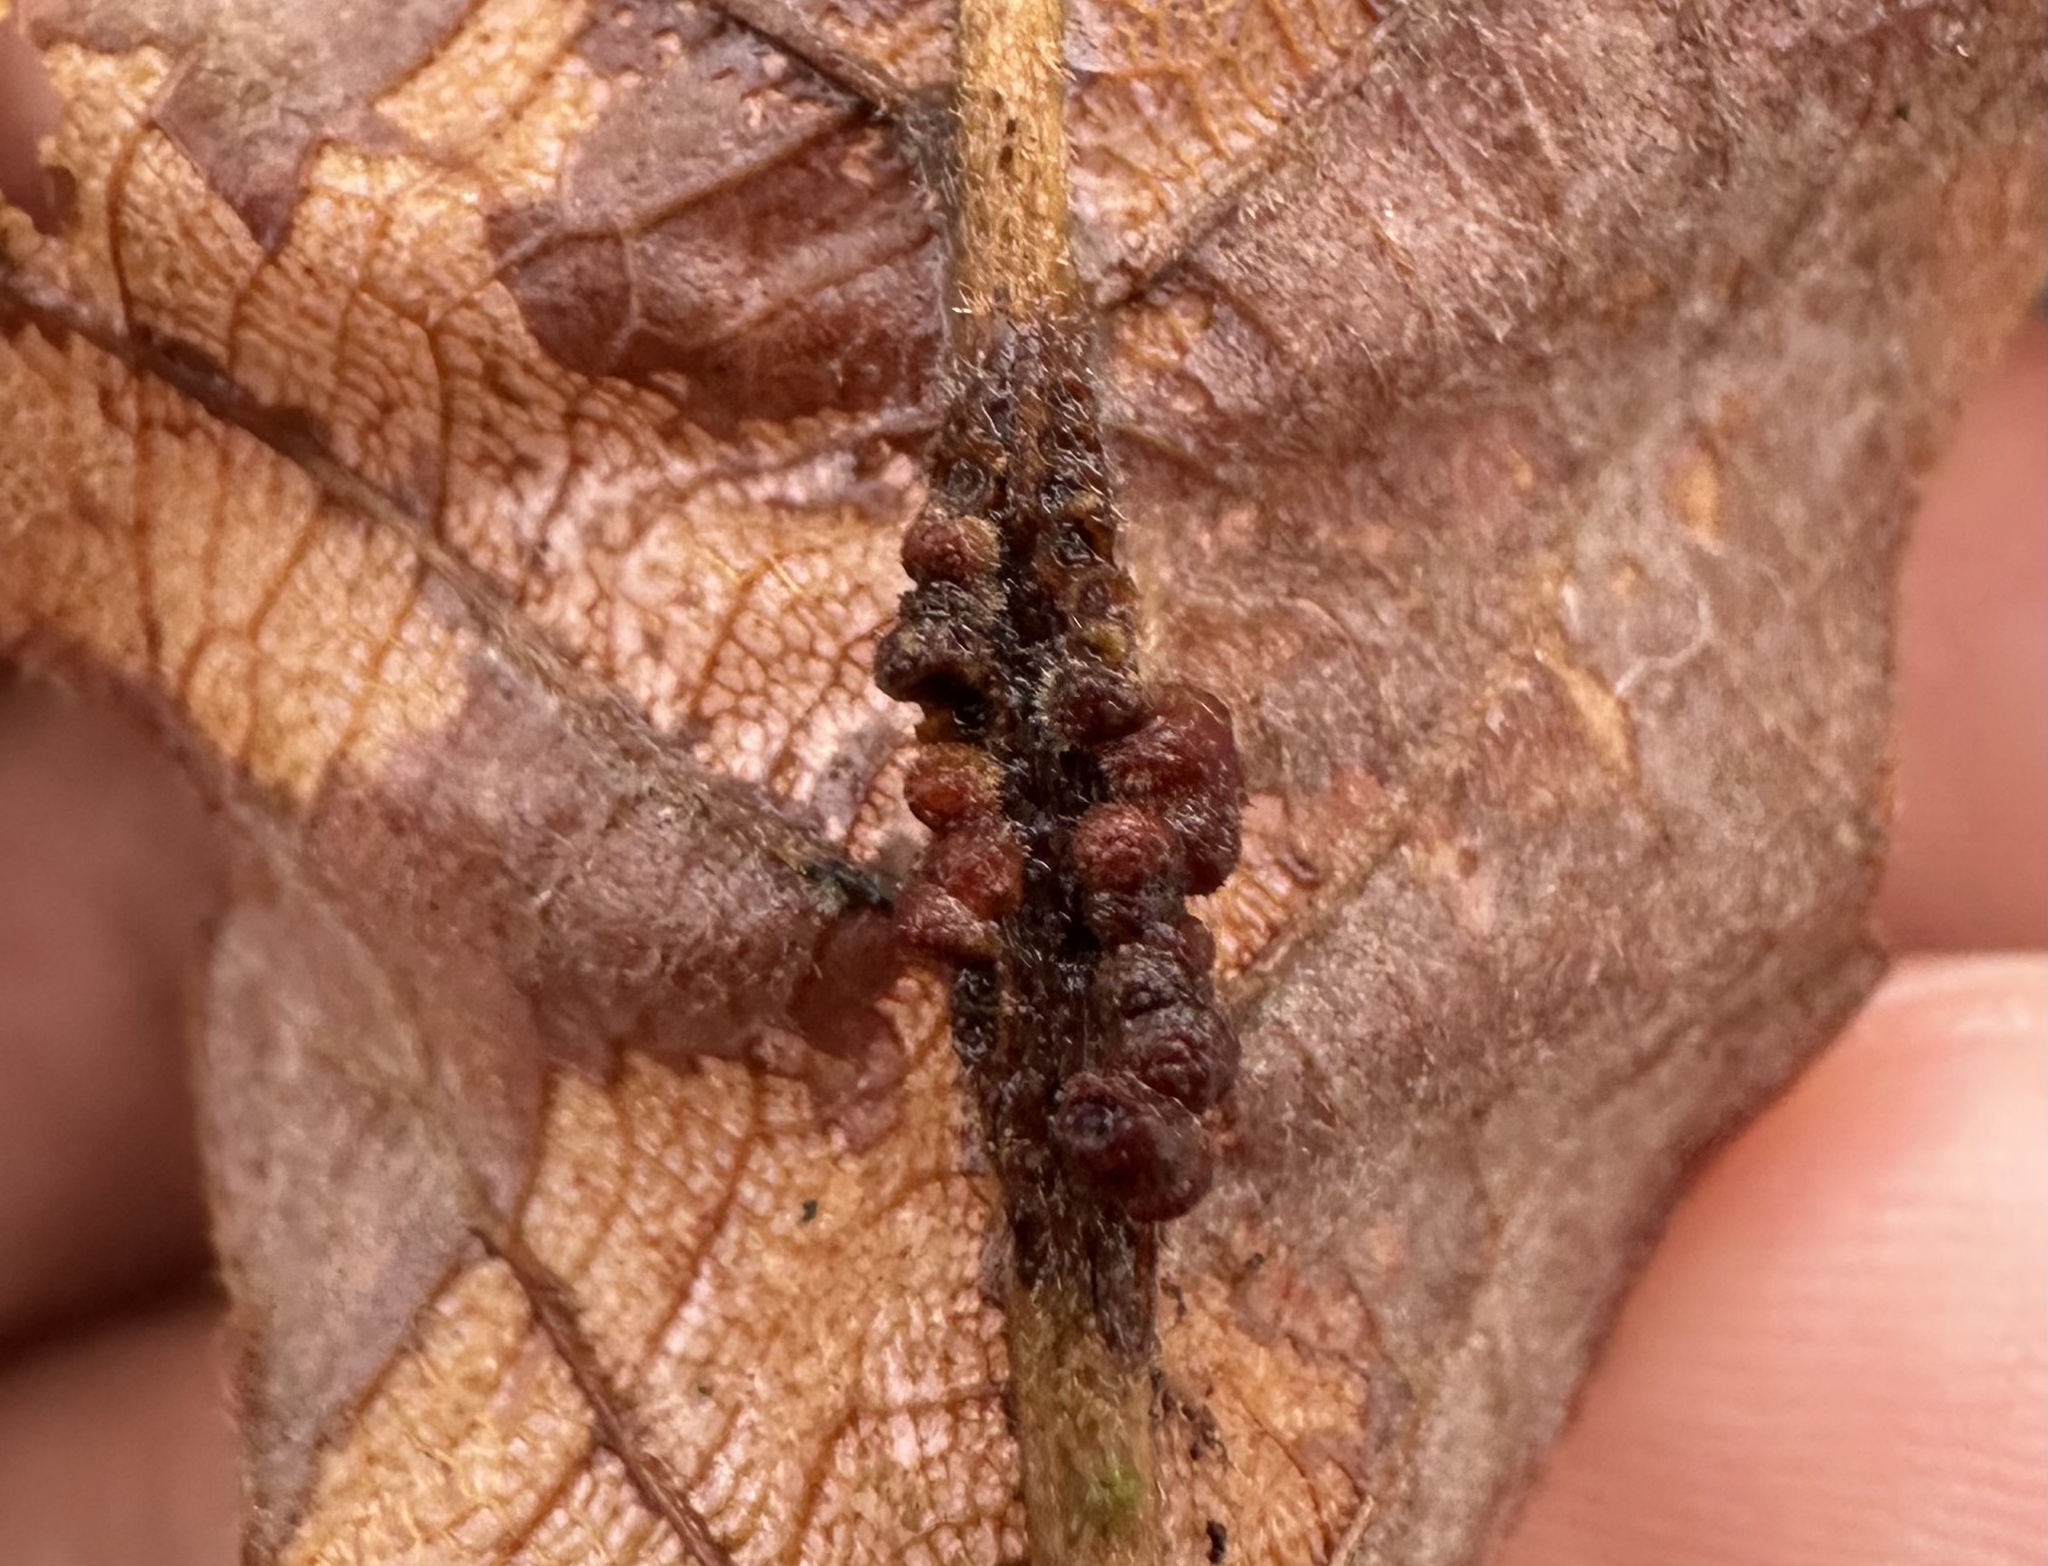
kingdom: Animalia
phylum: Arthropoda
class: Insecta
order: Hymenoptera
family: Cynipidae
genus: Andricus
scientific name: Andricus
